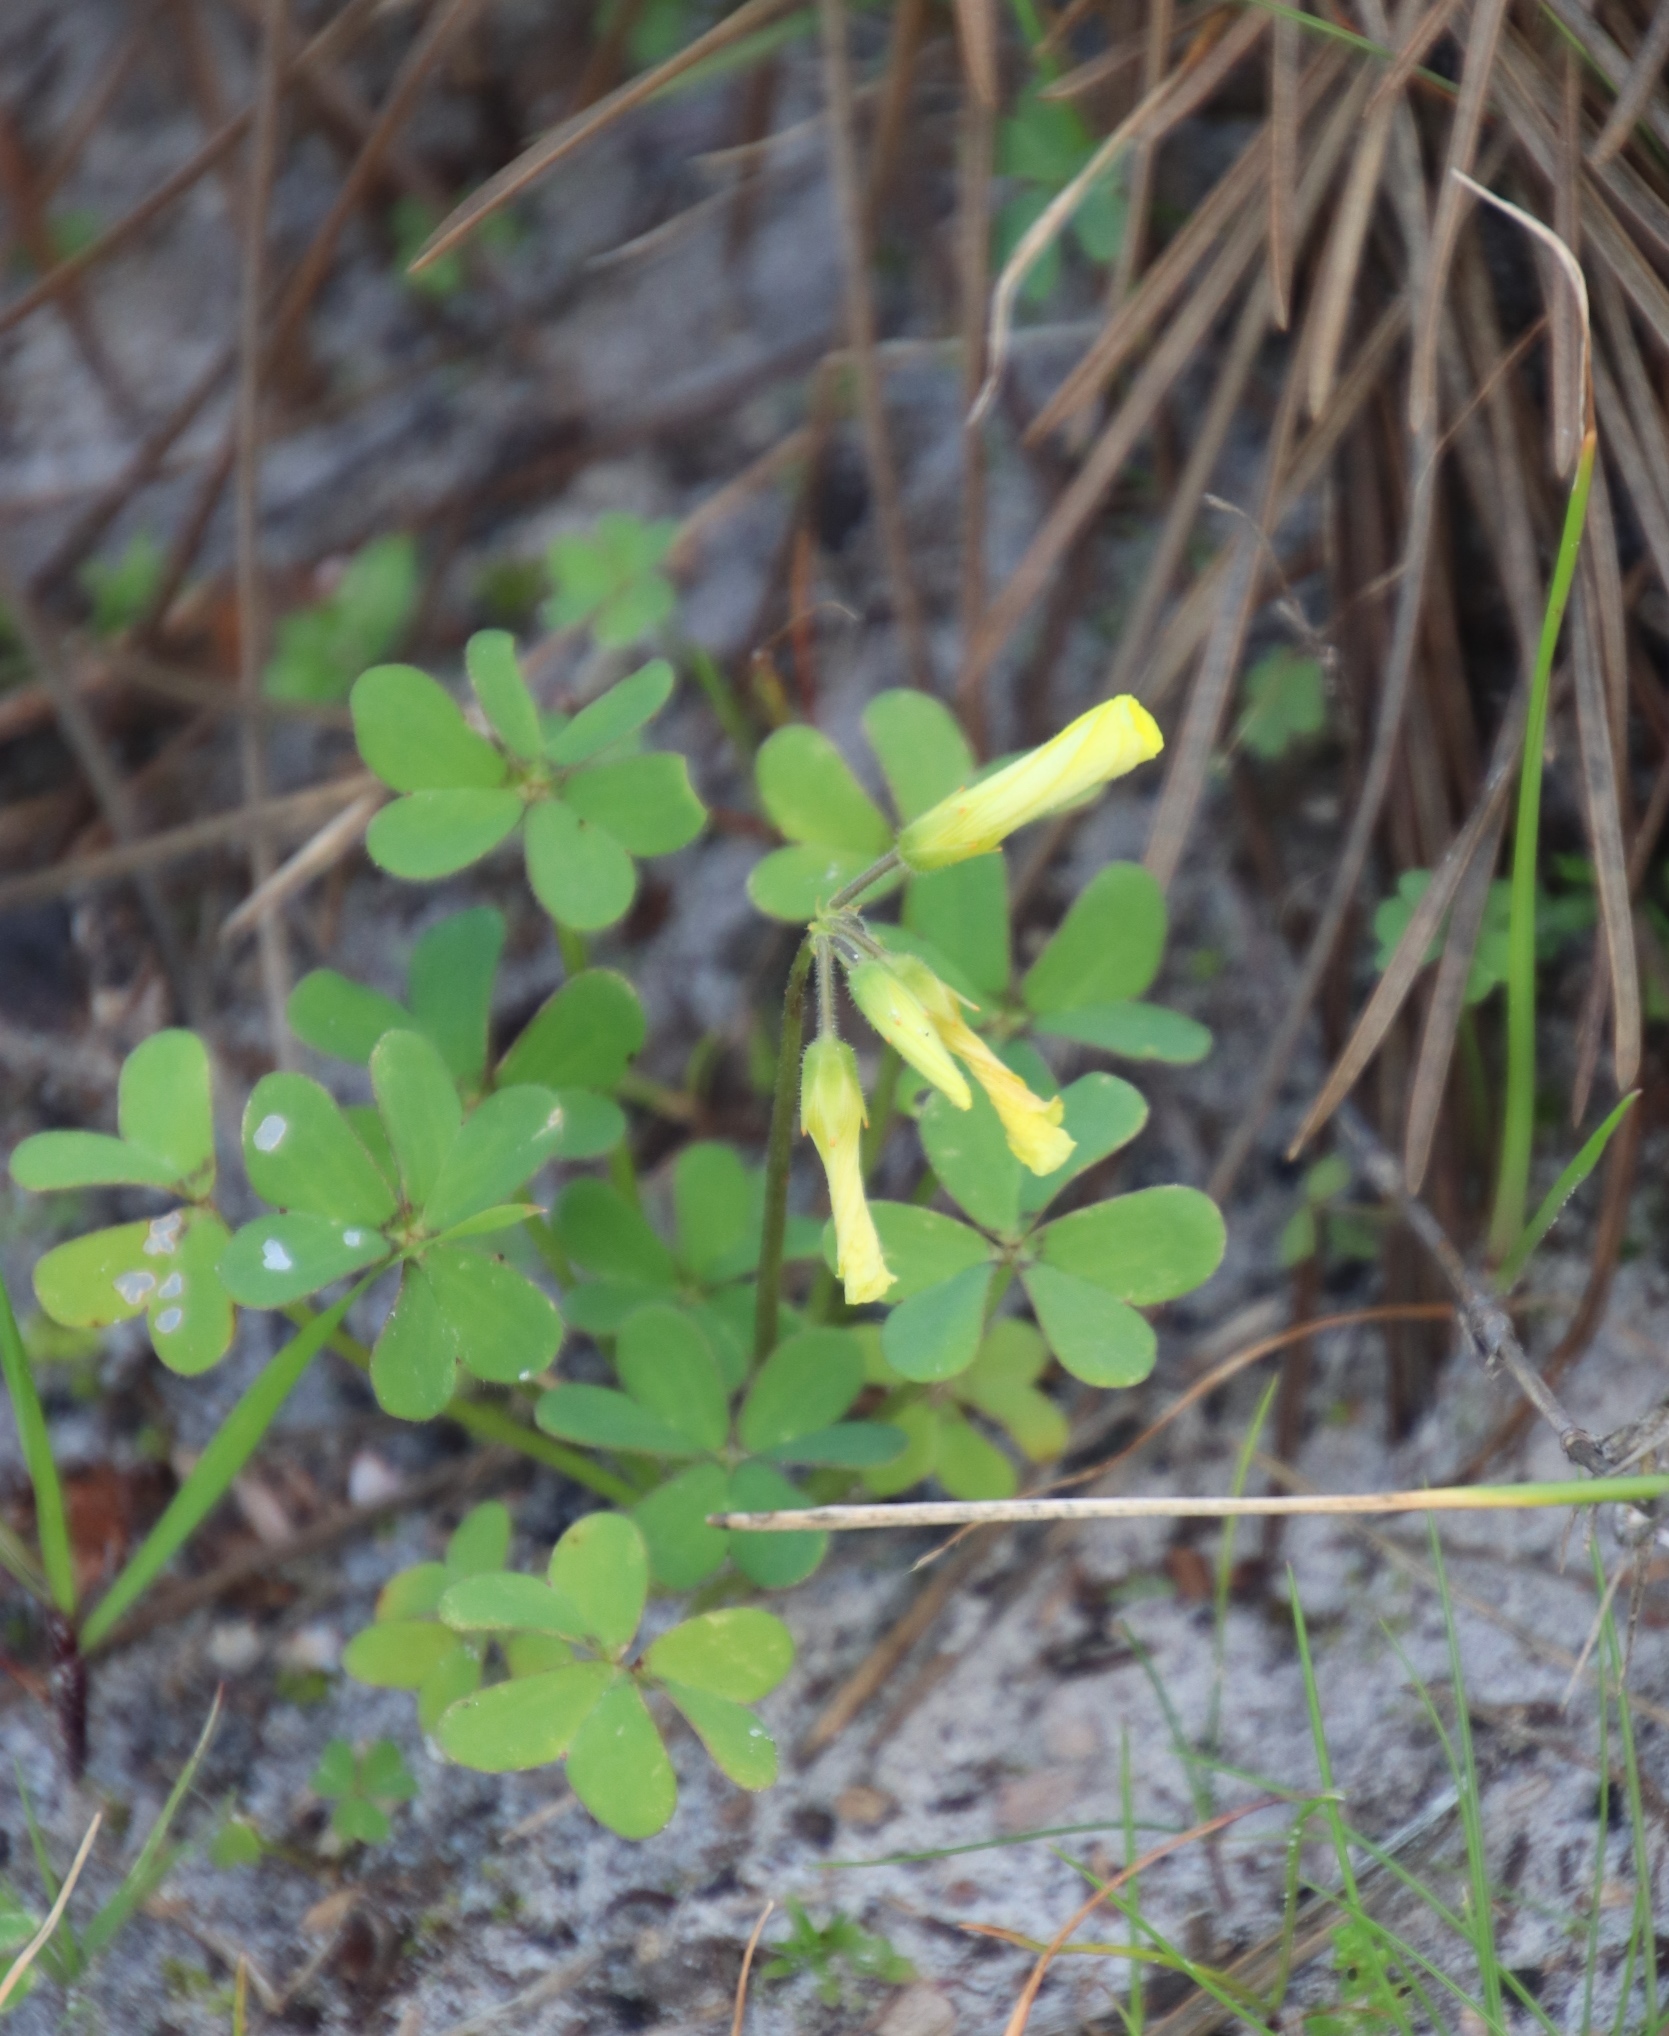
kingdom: Plantae
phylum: Tracheophyta
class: Magnoliopsida
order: Oxalidales
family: Oxalidaceae
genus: Oxalis
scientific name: Oxalis pes-caprae
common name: Bermuda-buttercup
